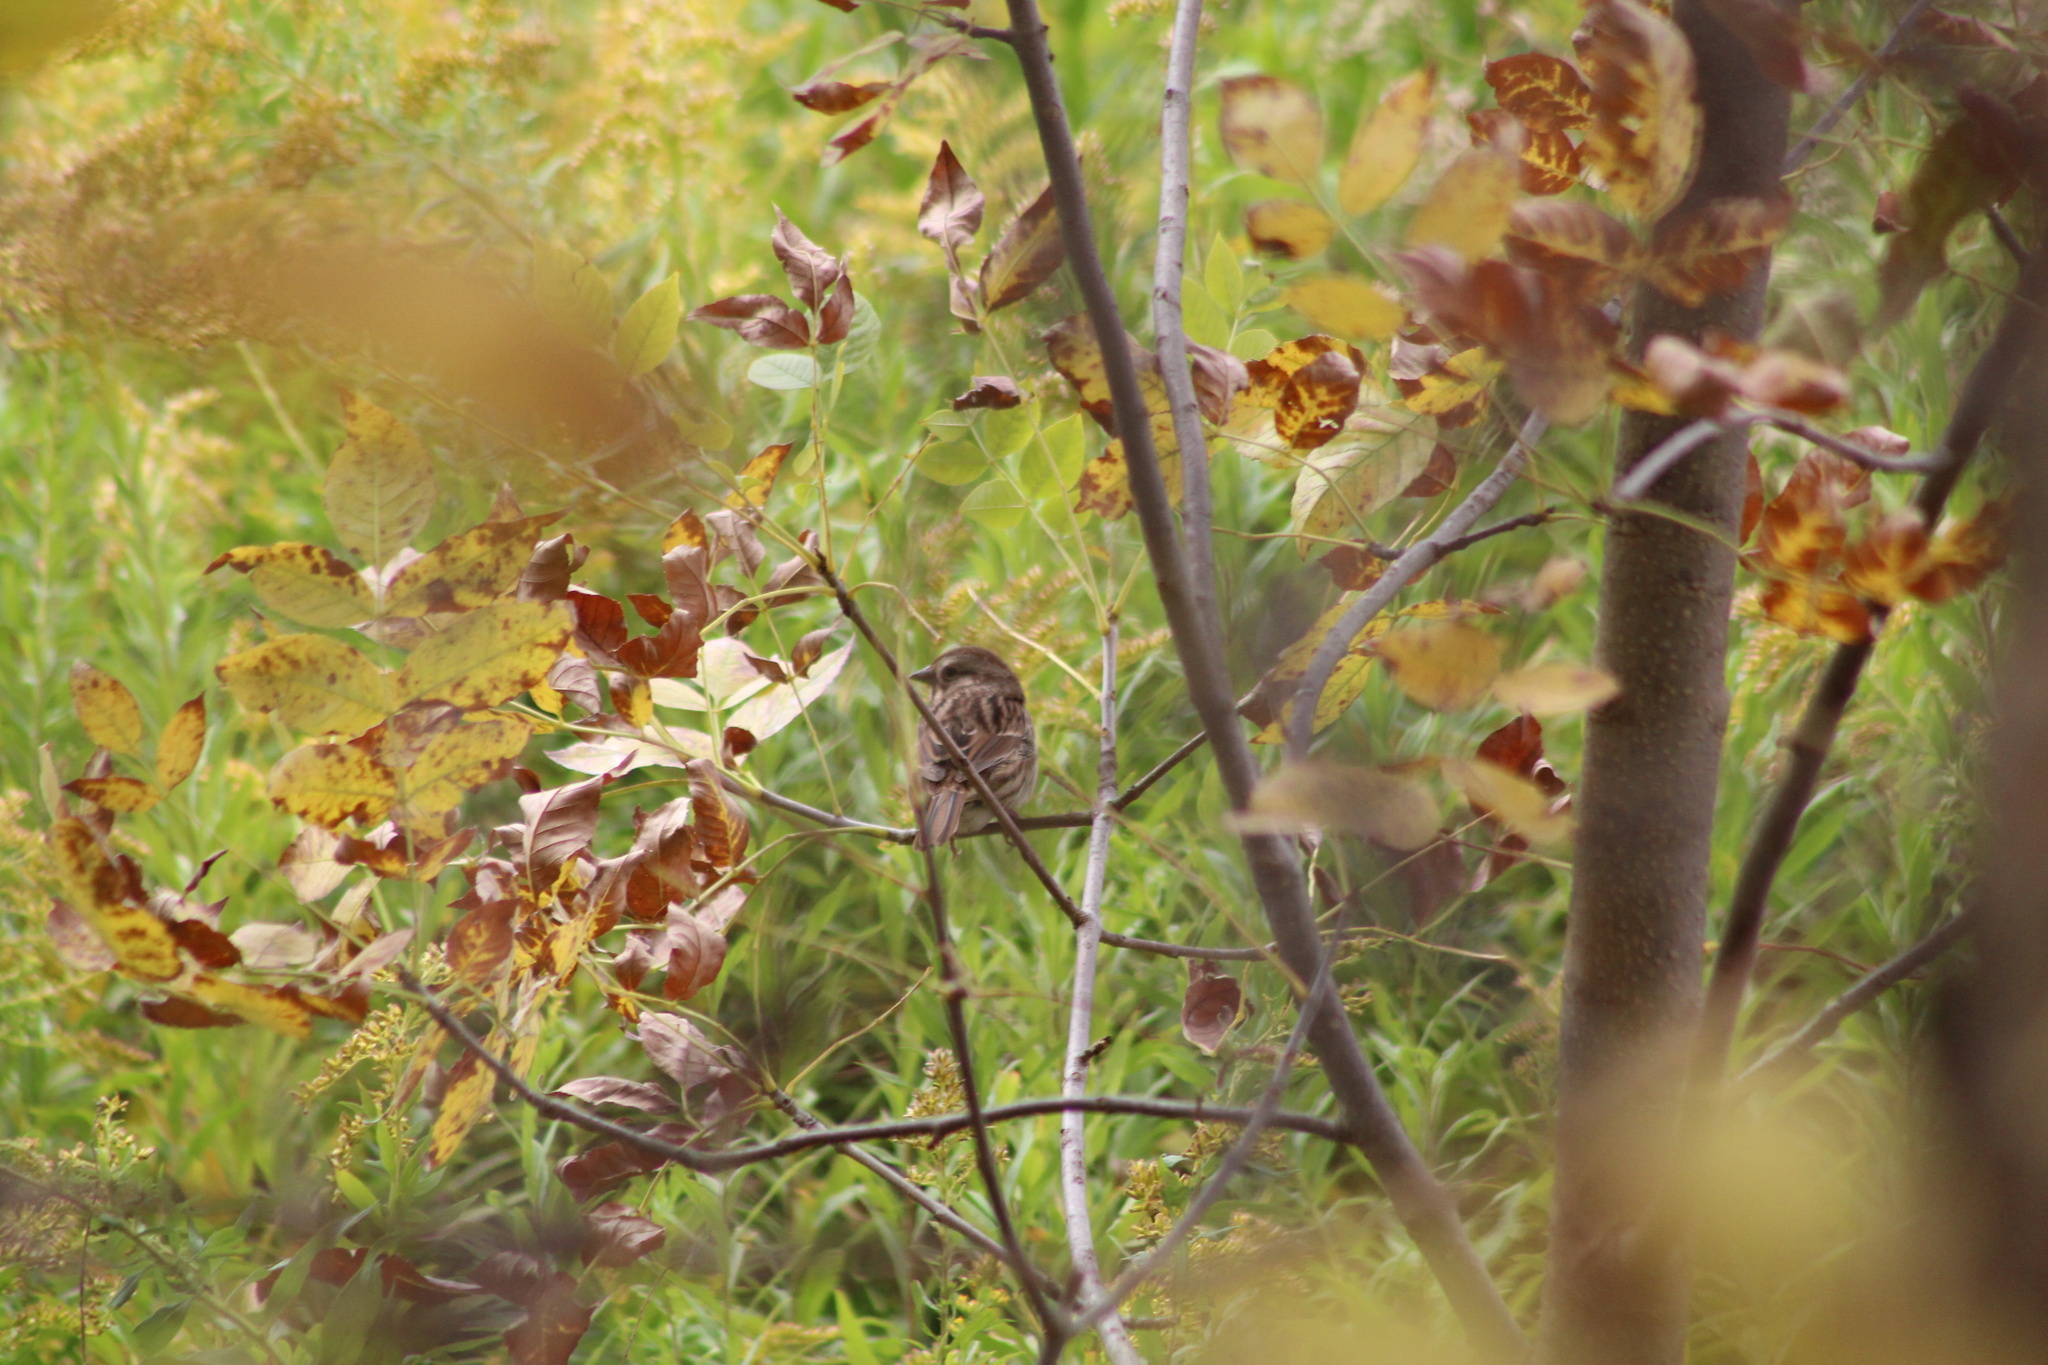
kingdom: Animalia
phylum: Chordata
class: Aves
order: Passeriformes
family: Passerellidae
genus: Spizelloides
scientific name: Spizelloides arborea
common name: American tree sparrow
